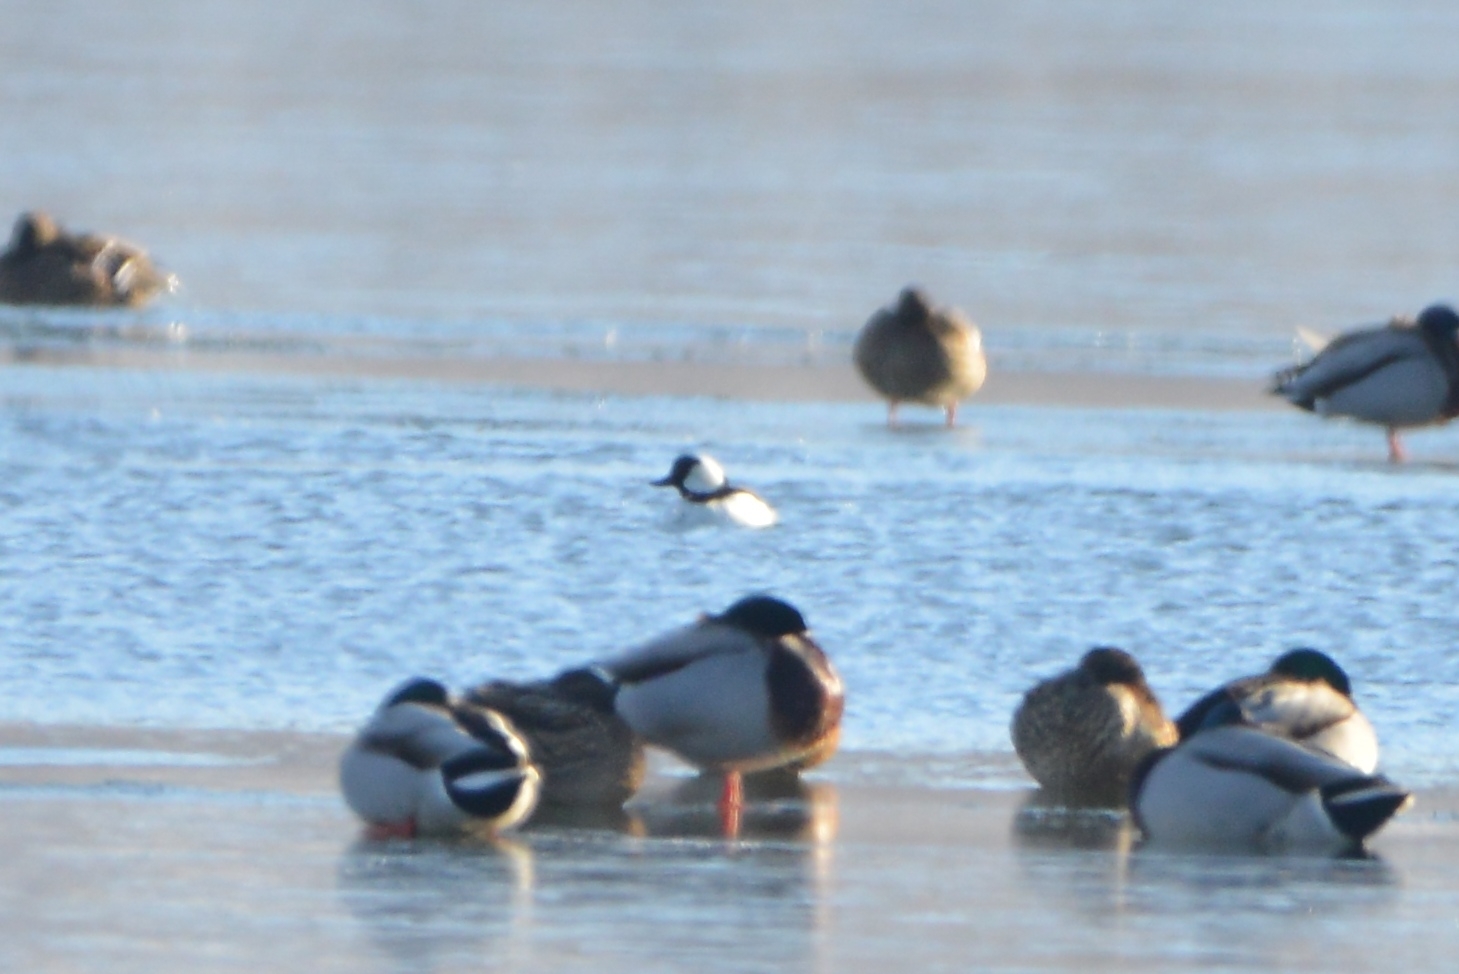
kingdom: Animalia
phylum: Chordata
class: Aves
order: Anseriformes
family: Anatidae
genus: Bucephala
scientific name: Bucephala albeola
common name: Bufflehead
